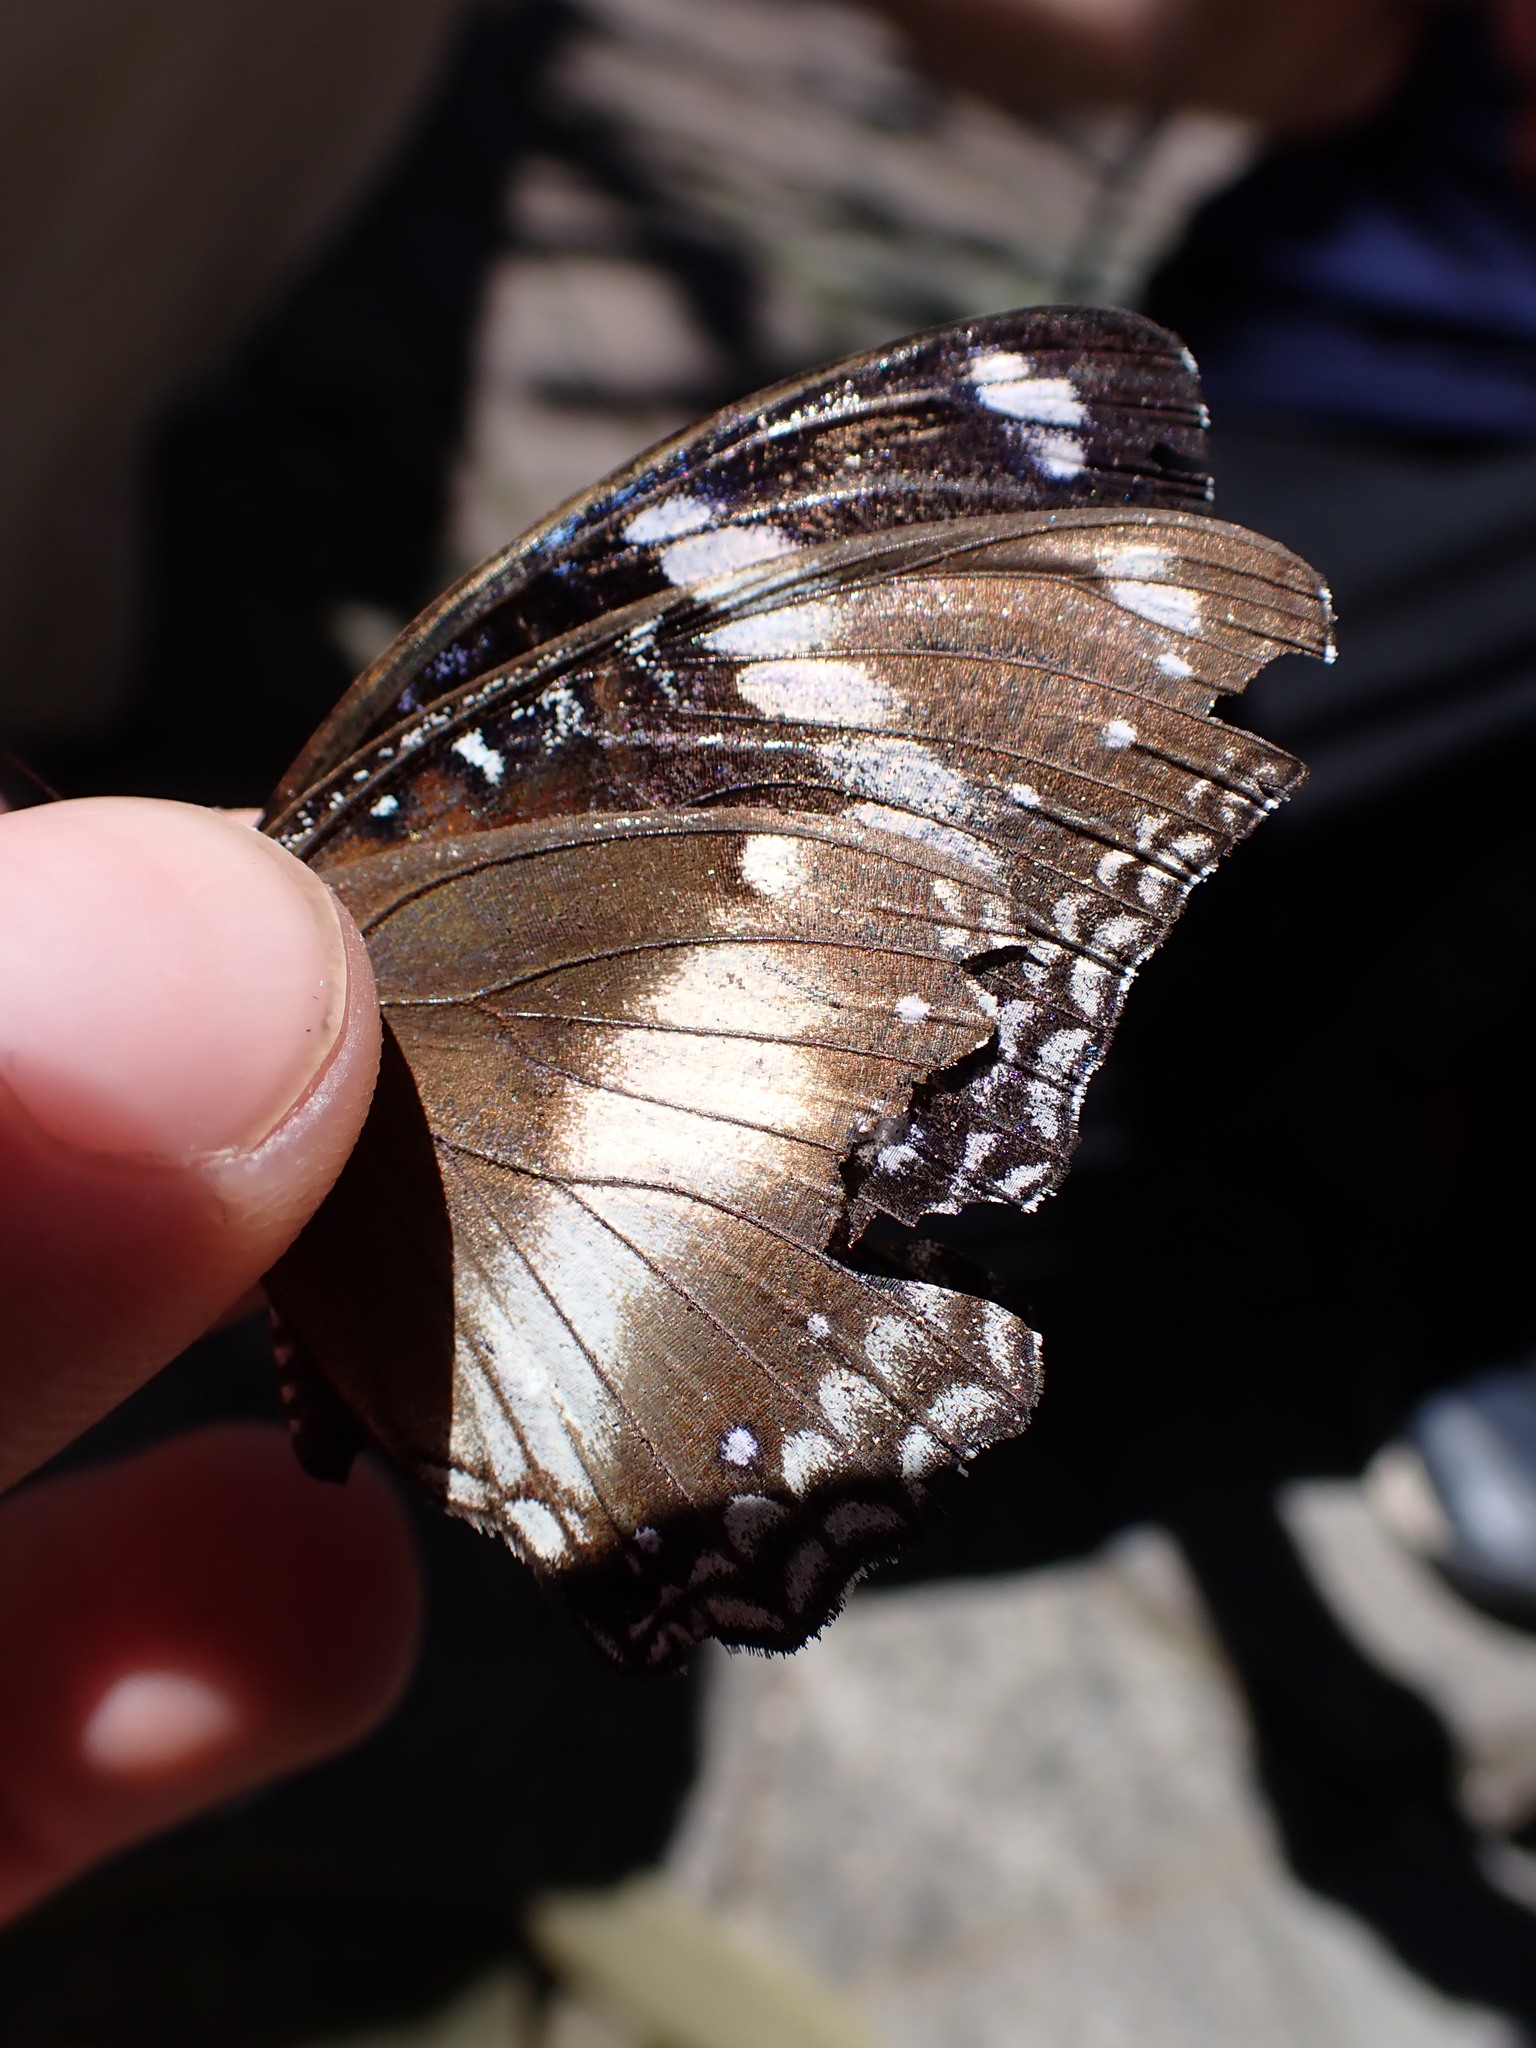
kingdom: Animalia
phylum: Arthropoda
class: Insecta
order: Lepidoptera
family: Nymphalidae
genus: Hypolimnas
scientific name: Hypolimnas bolina
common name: Great eggfly
